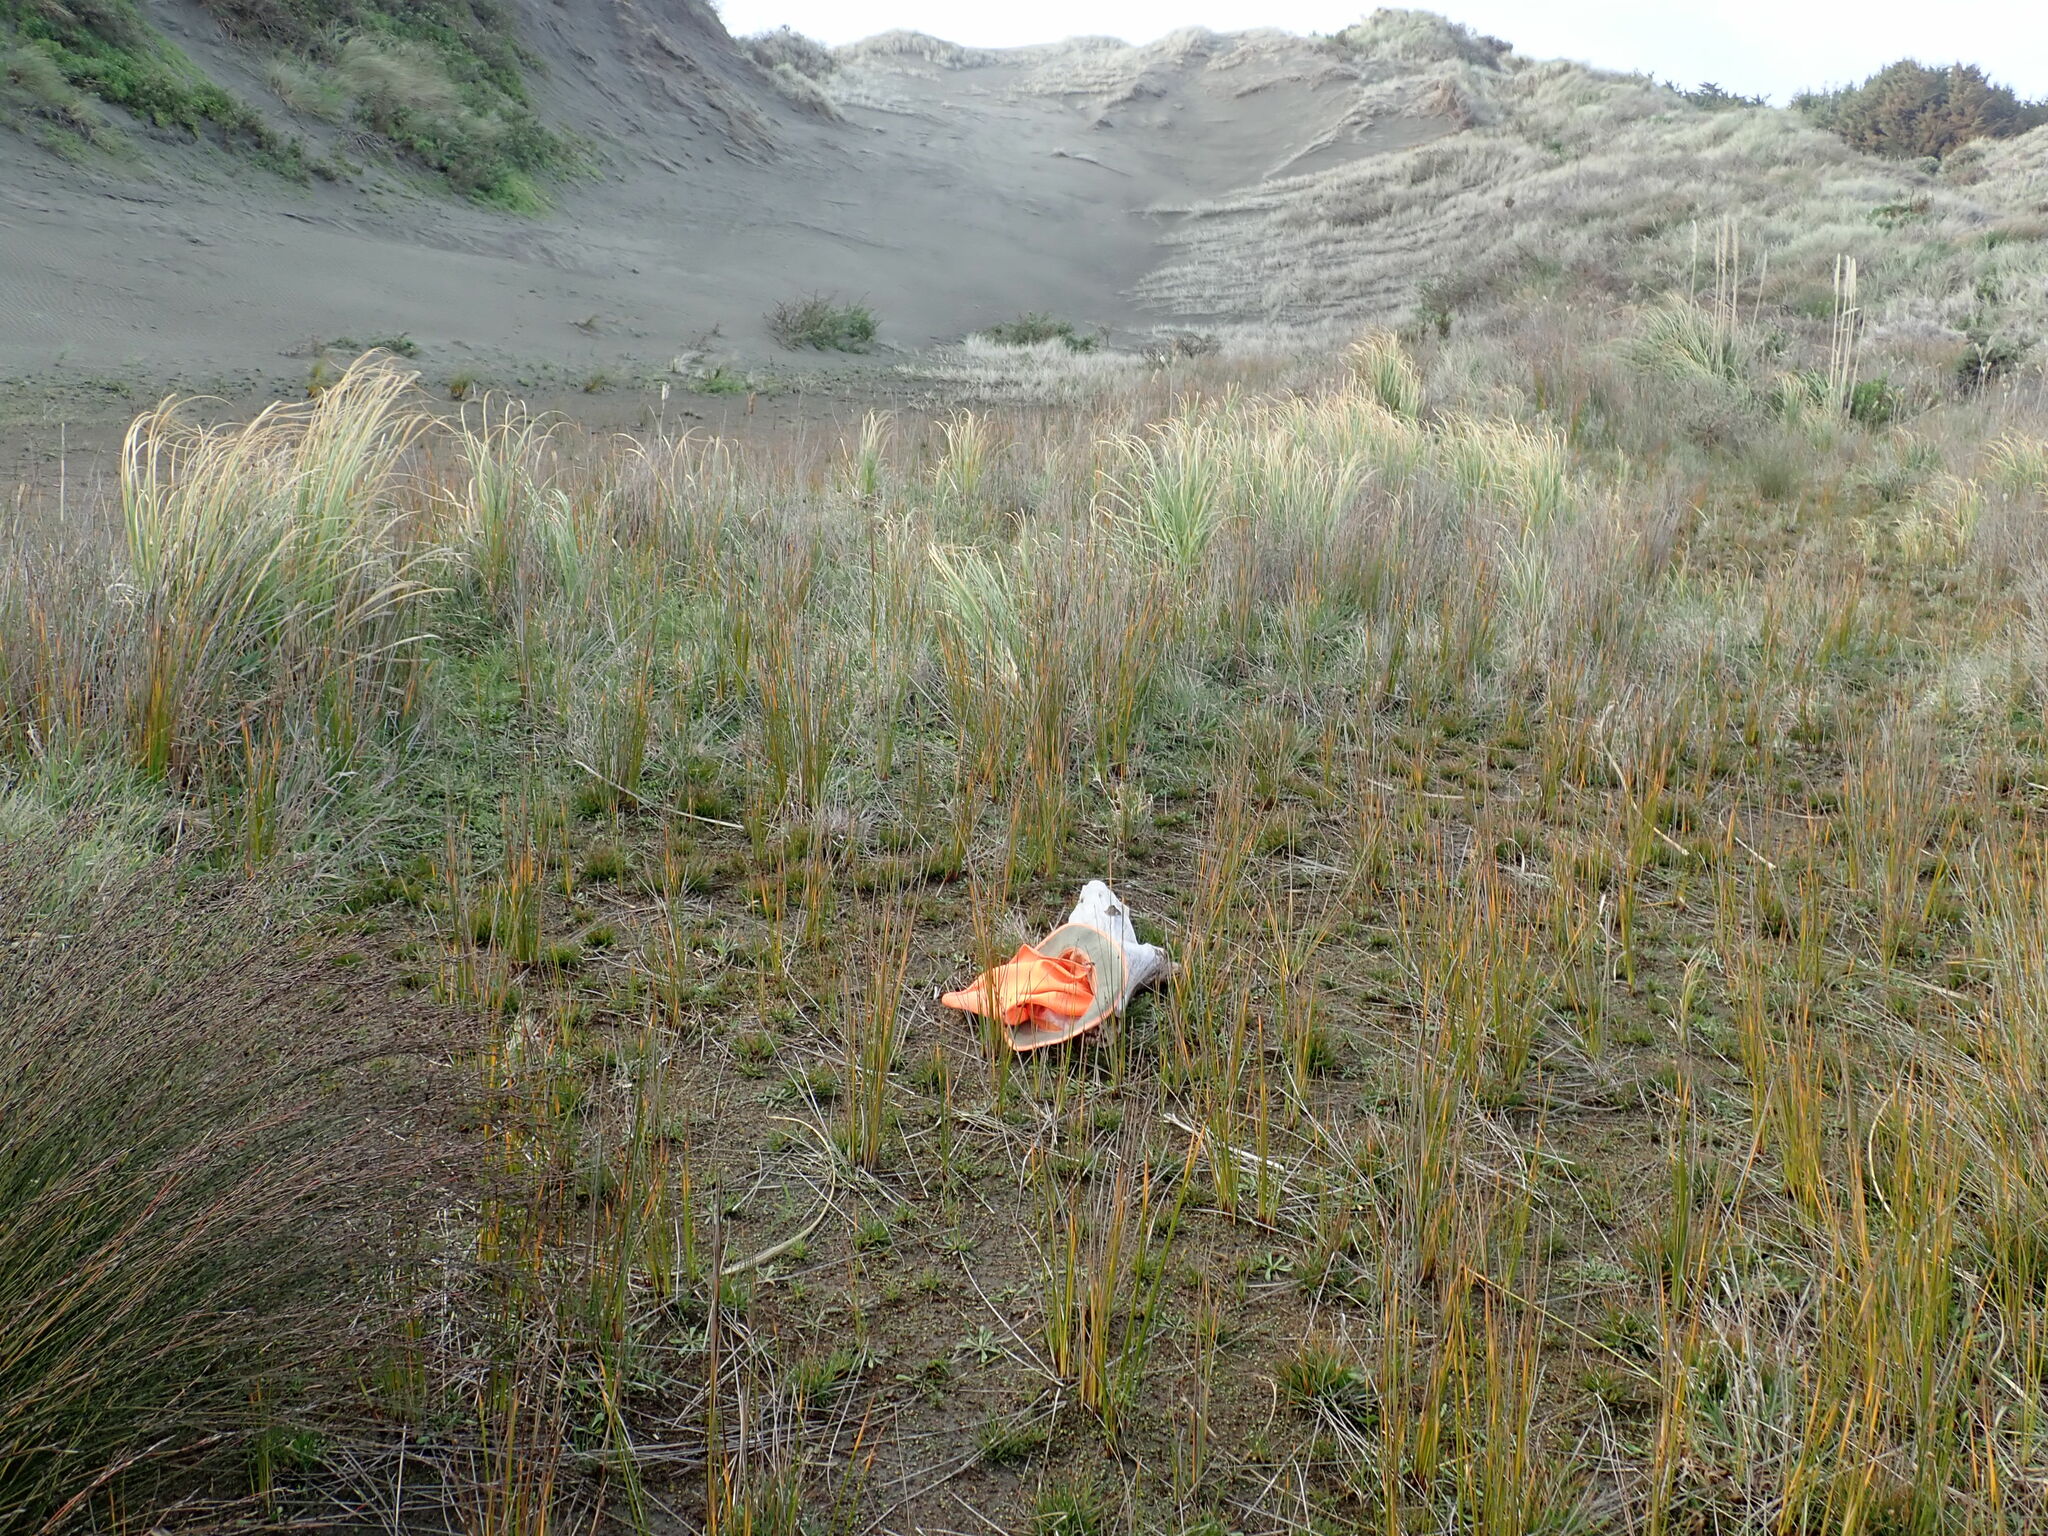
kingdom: Animalia
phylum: Arthropoda
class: Arachnida
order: Araneae
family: Porrhothelidae
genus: Porrhothele
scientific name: Porrhothele antipodiana
